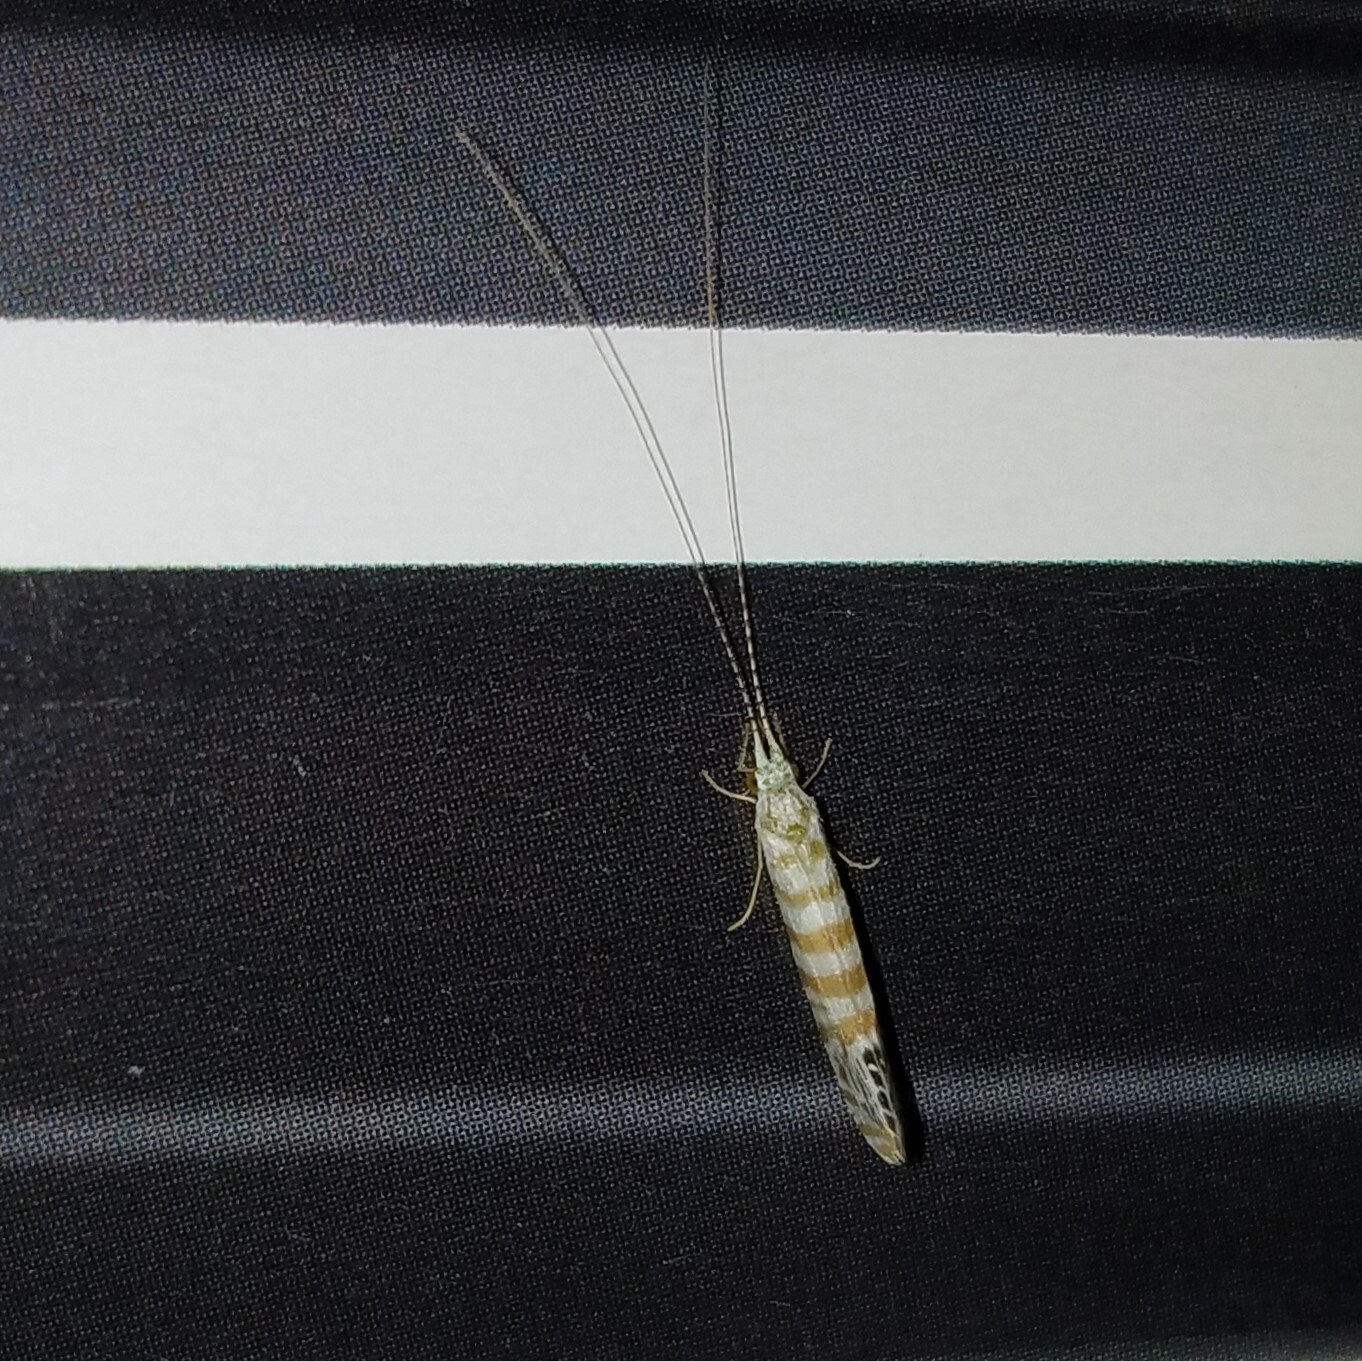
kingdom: Animalia
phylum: Arthropoda
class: Insecta
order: Trichoptera
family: Leptoceridae
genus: Nectopsyche
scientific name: Nectopsyche exquisita
